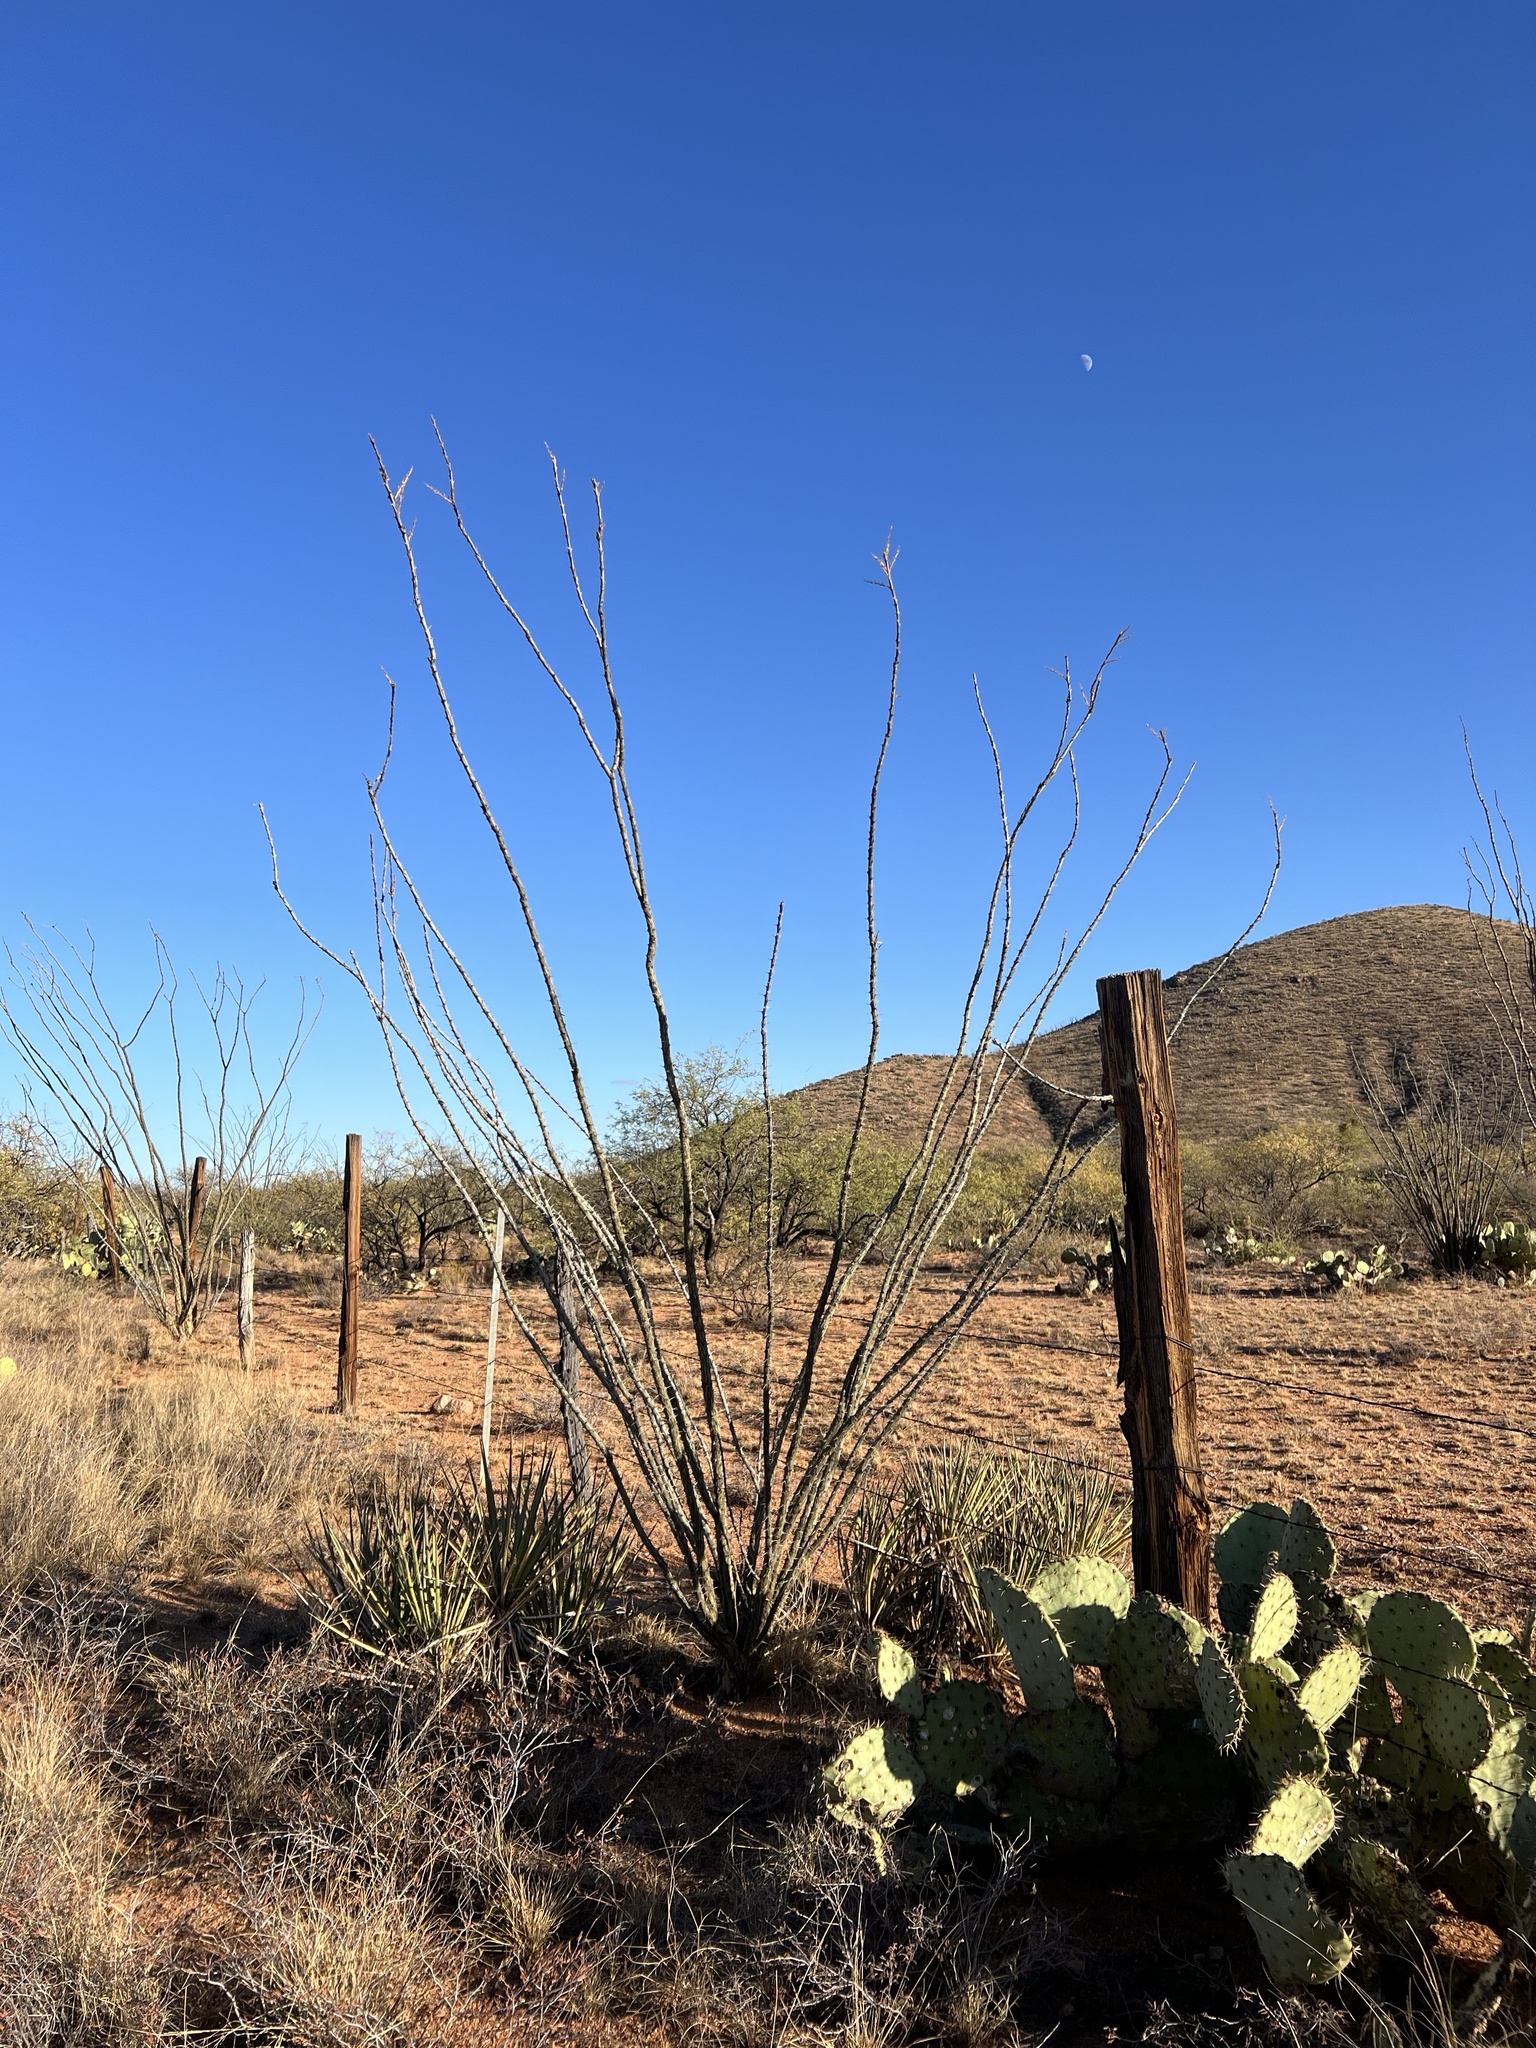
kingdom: Plantae
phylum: Tracheophyta
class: Magnoliopsida
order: Ericales
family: Fouquieriaceae
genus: Fouquieria
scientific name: Fouquieria splendens
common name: Vine-cactus
